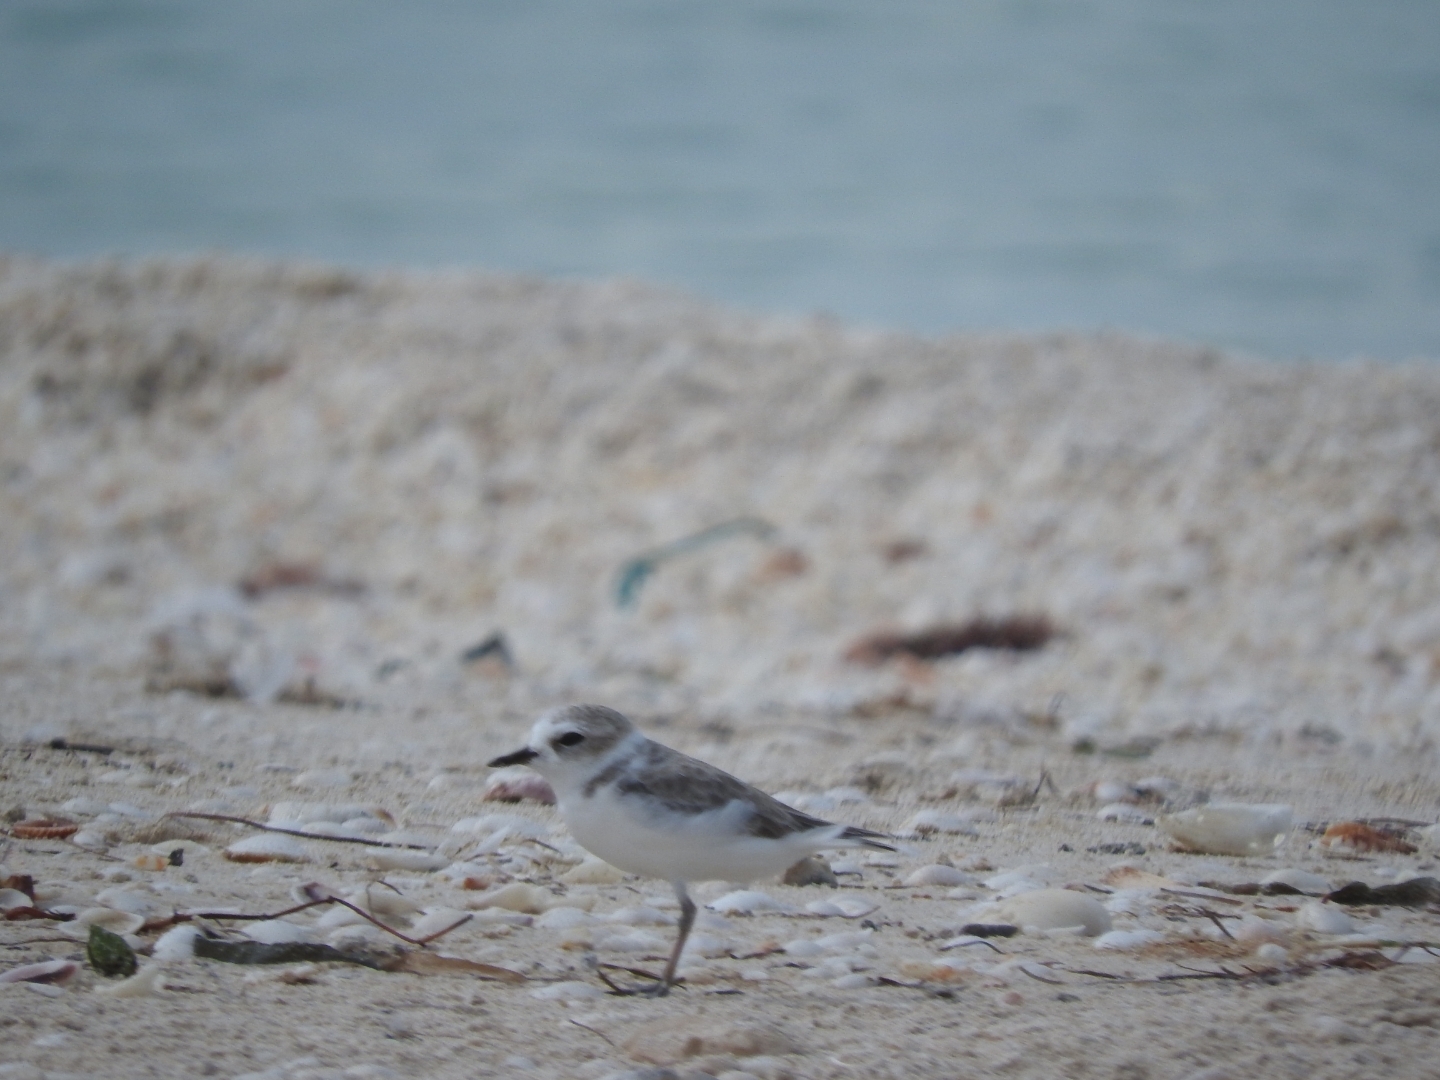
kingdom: Animalia
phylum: Chordata
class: Aves
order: Charadriiformes
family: Charadriidae
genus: Anarhynchus
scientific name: Anarhynchus
